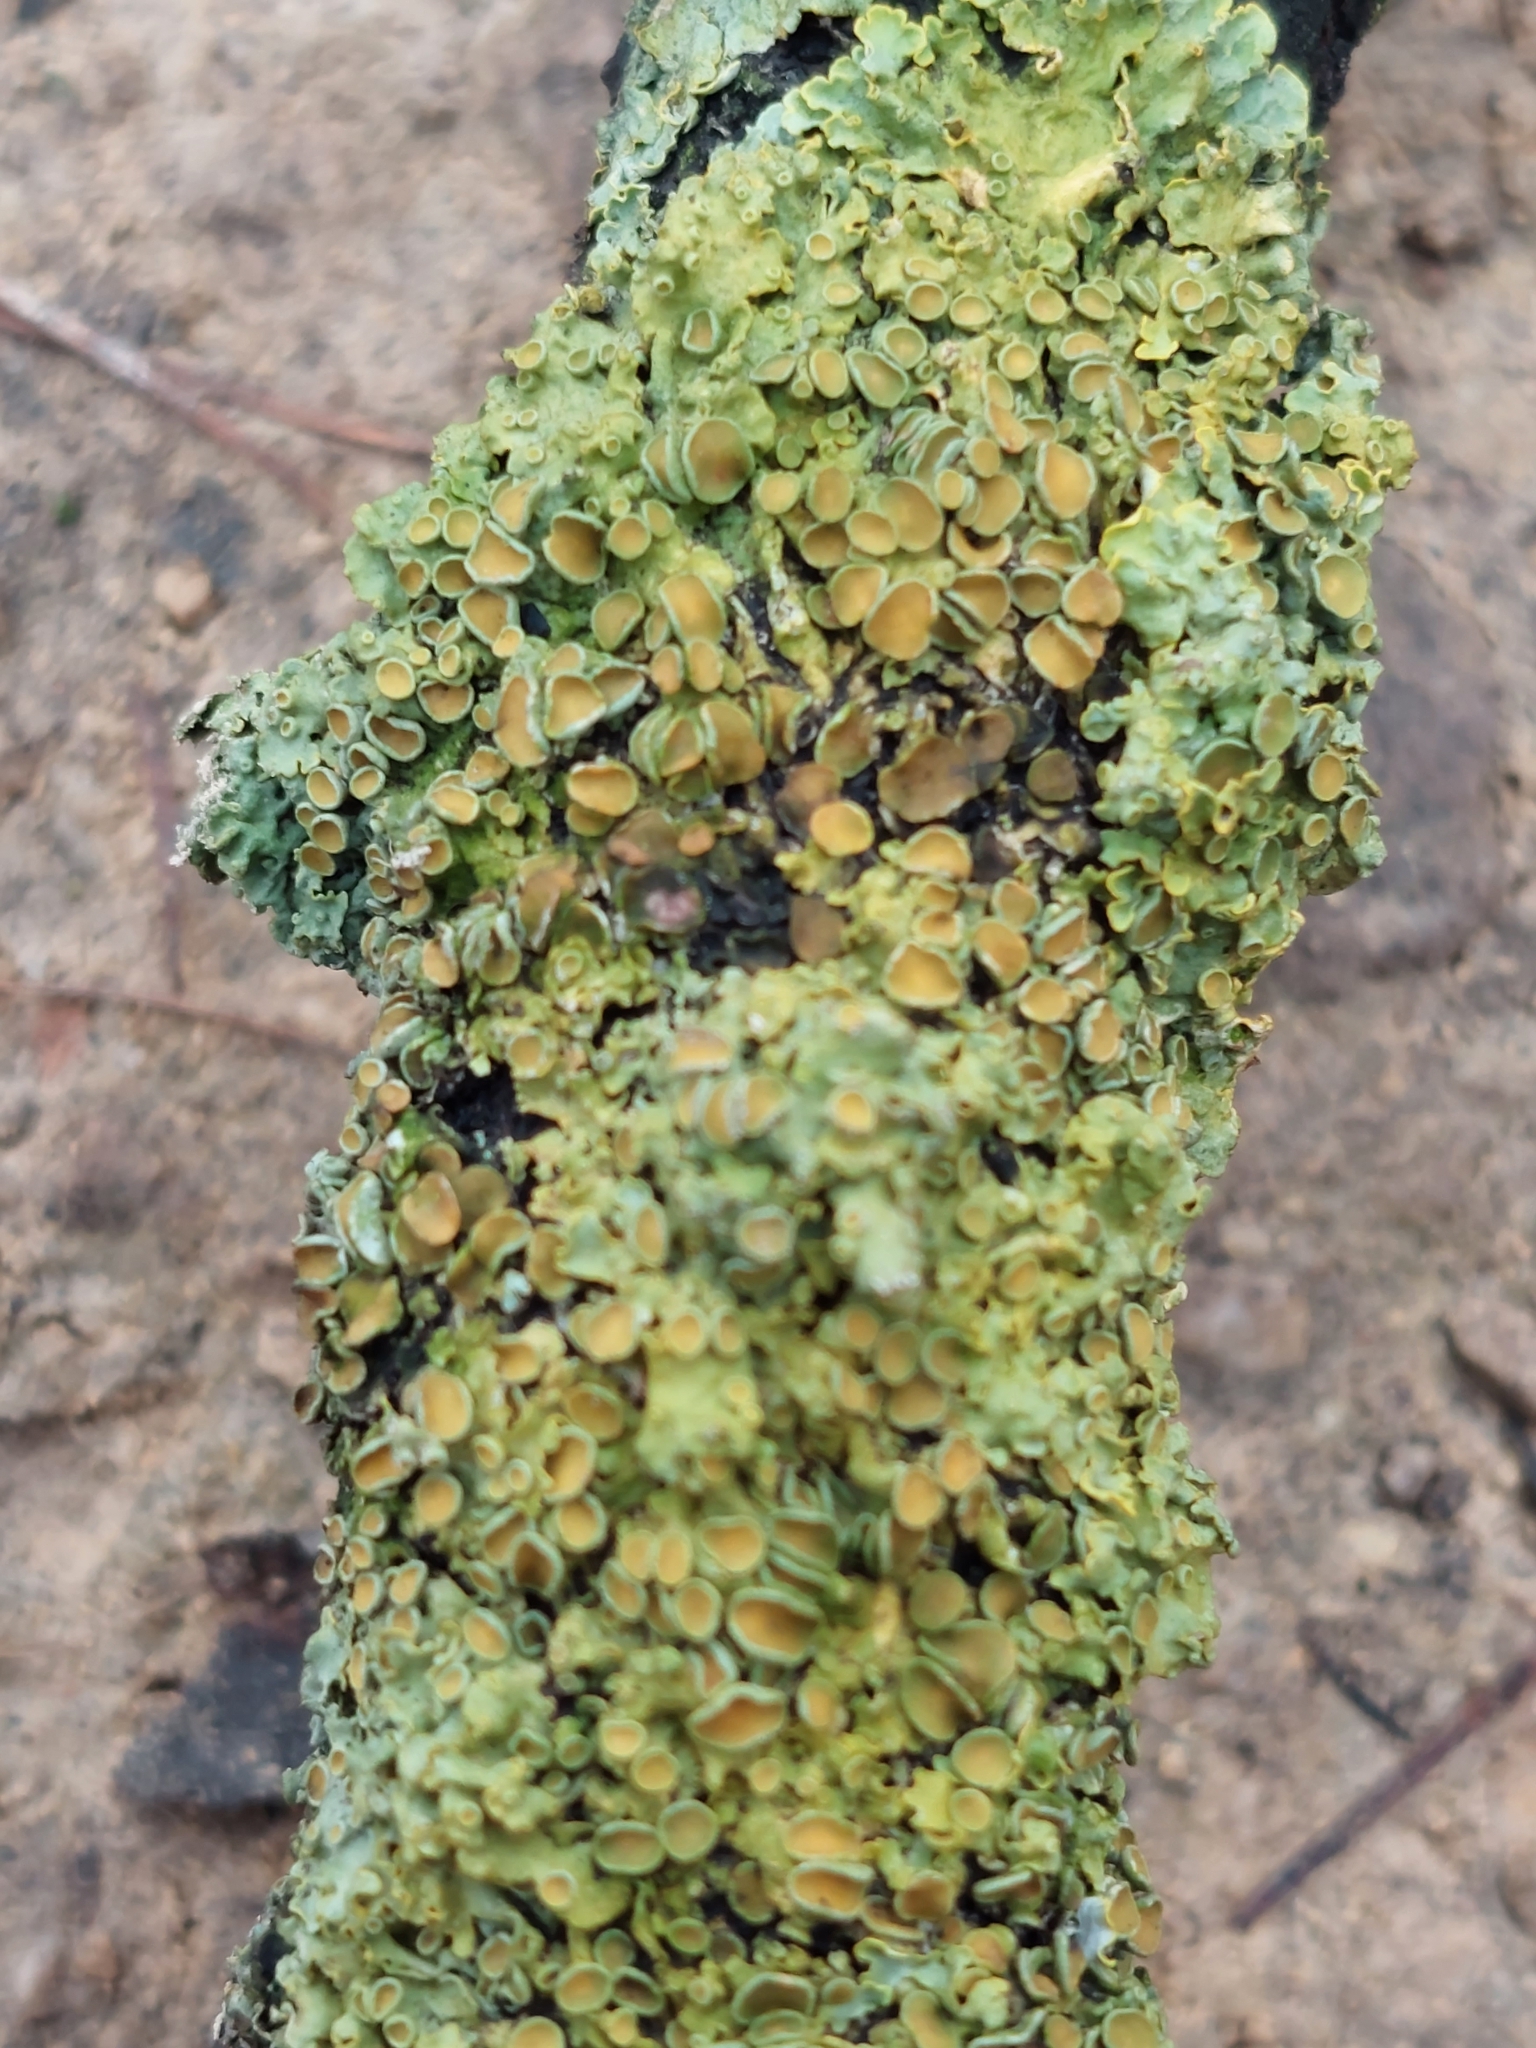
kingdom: Fungi
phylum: Ascomycota
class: Lecanoromycetes
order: Teloschistales
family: Teloschistaceae
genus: Xanthoria
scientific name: Xanthoria parietina
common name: Common orange lichen
